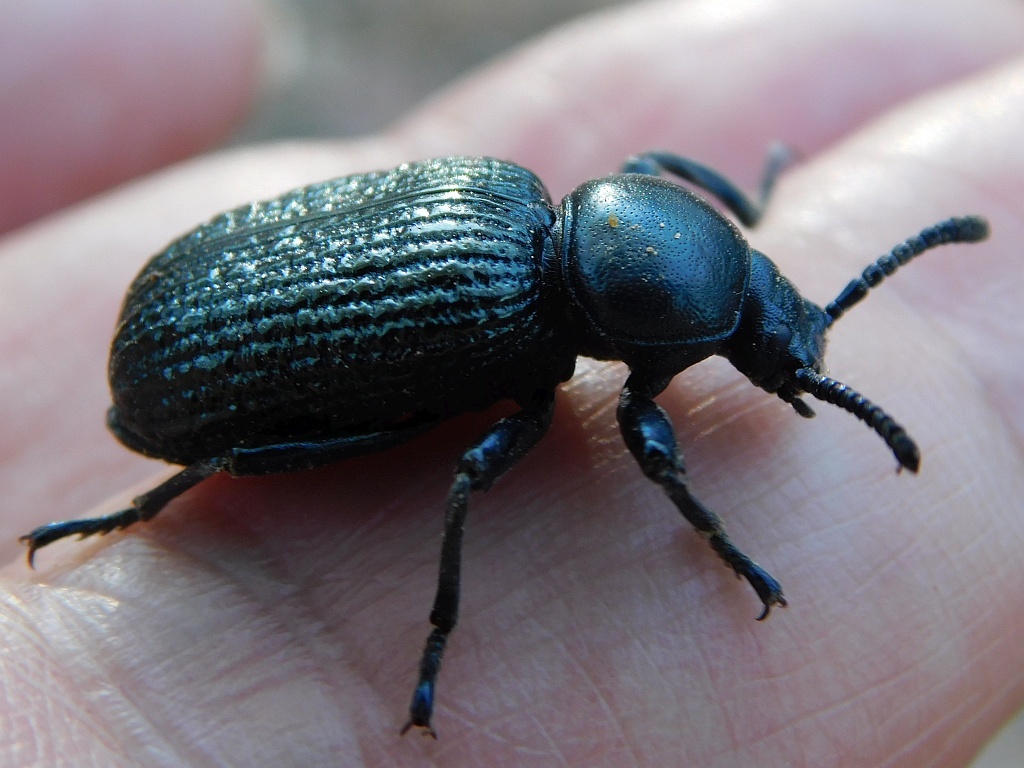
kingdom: Animalia
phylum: Arthropoda
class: Insecta
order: Coleoptera
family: Tenebrionidae
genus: Catamerus
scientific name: Catamerus
